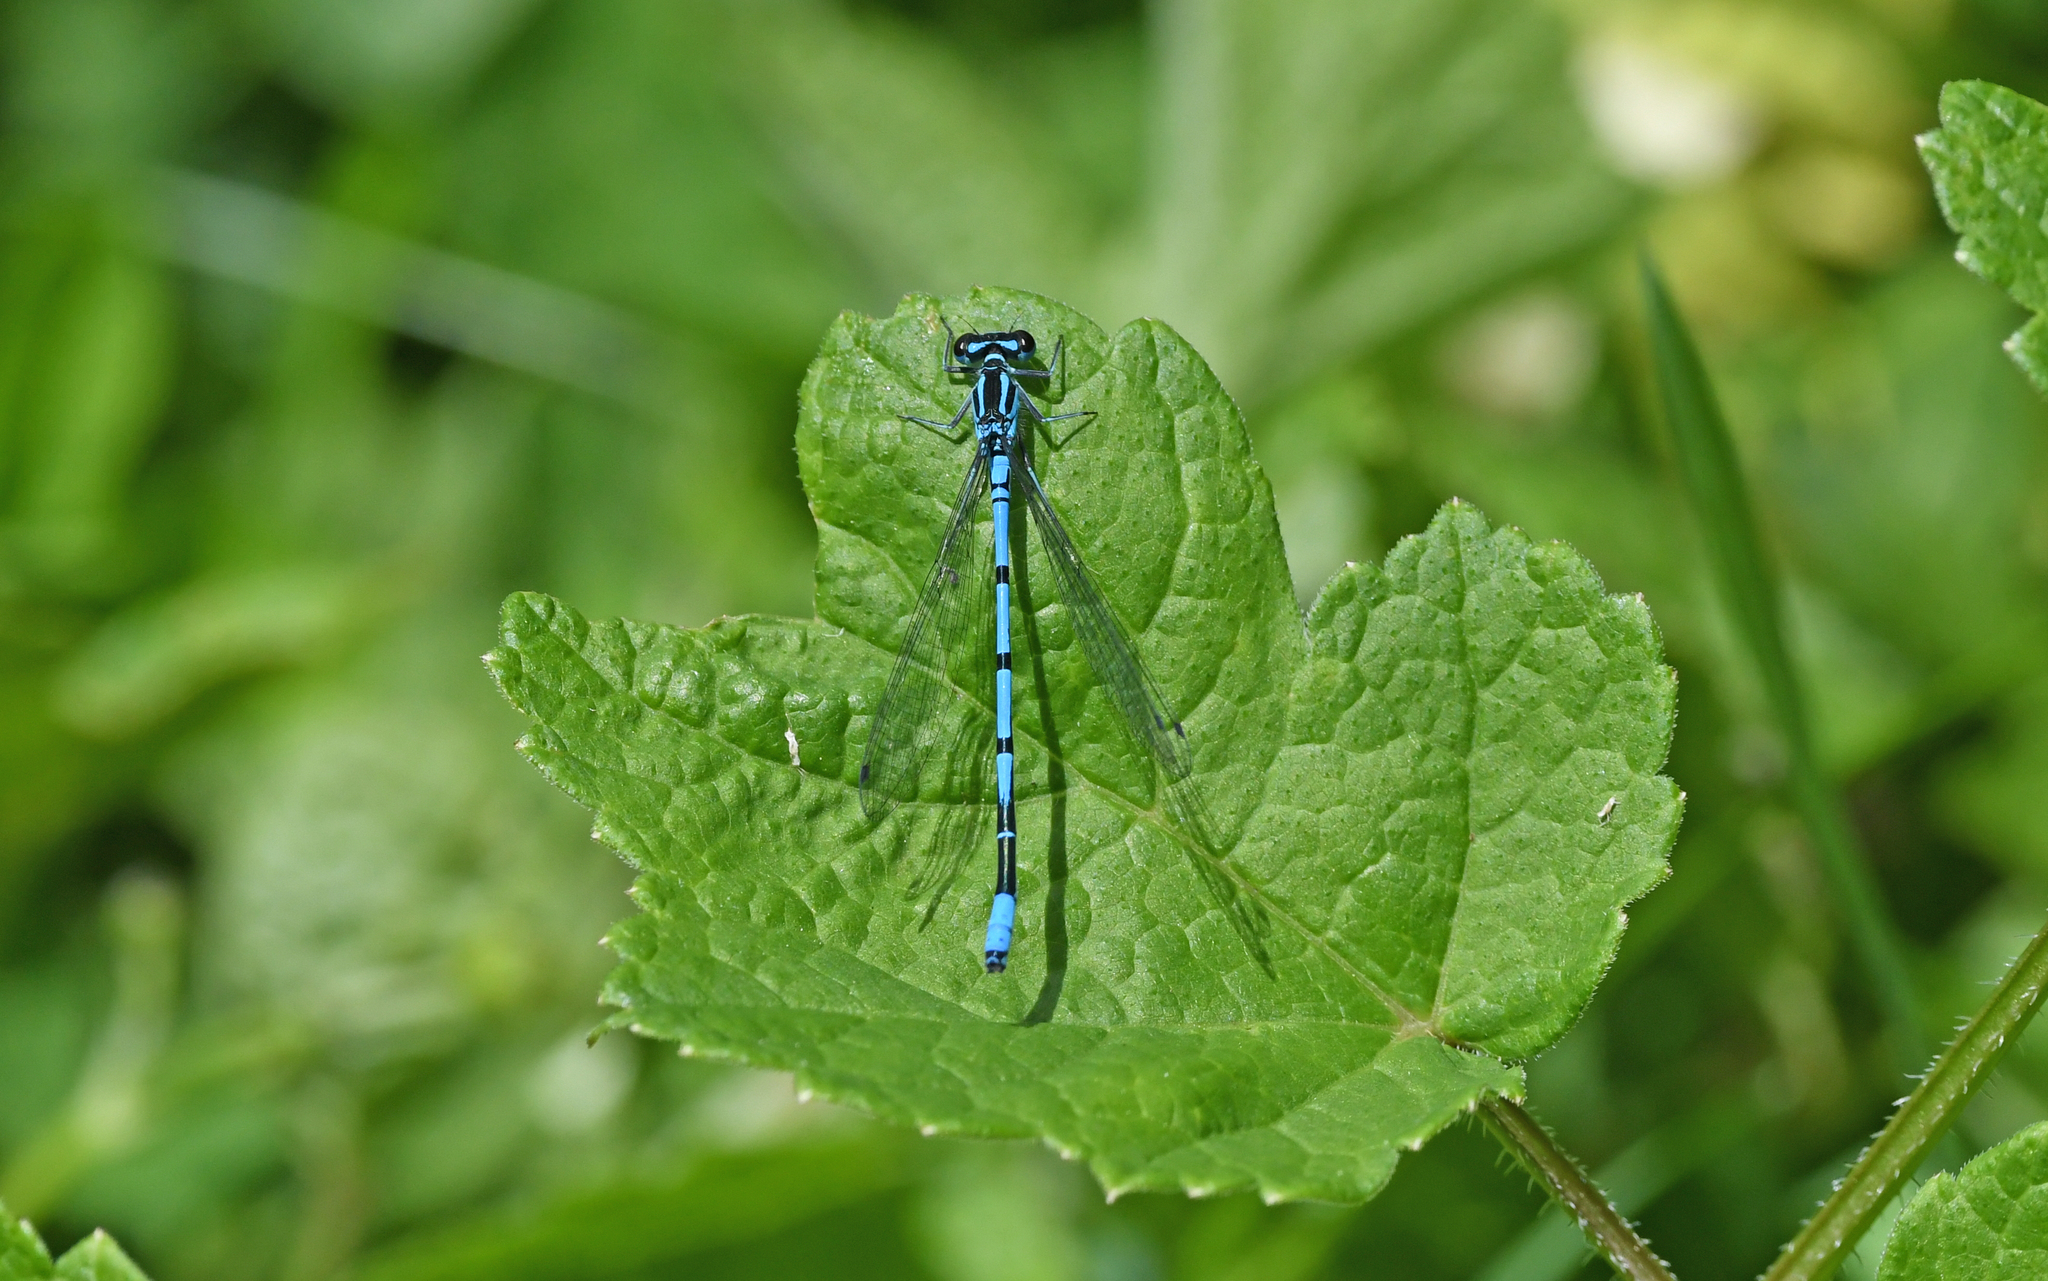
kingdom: Animalia
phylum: Arthropoda
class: Insecta
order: Odonata
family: Coenagrionidae
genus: Coenagrion
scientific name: Coenagrion puella
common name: Azure damselfly
